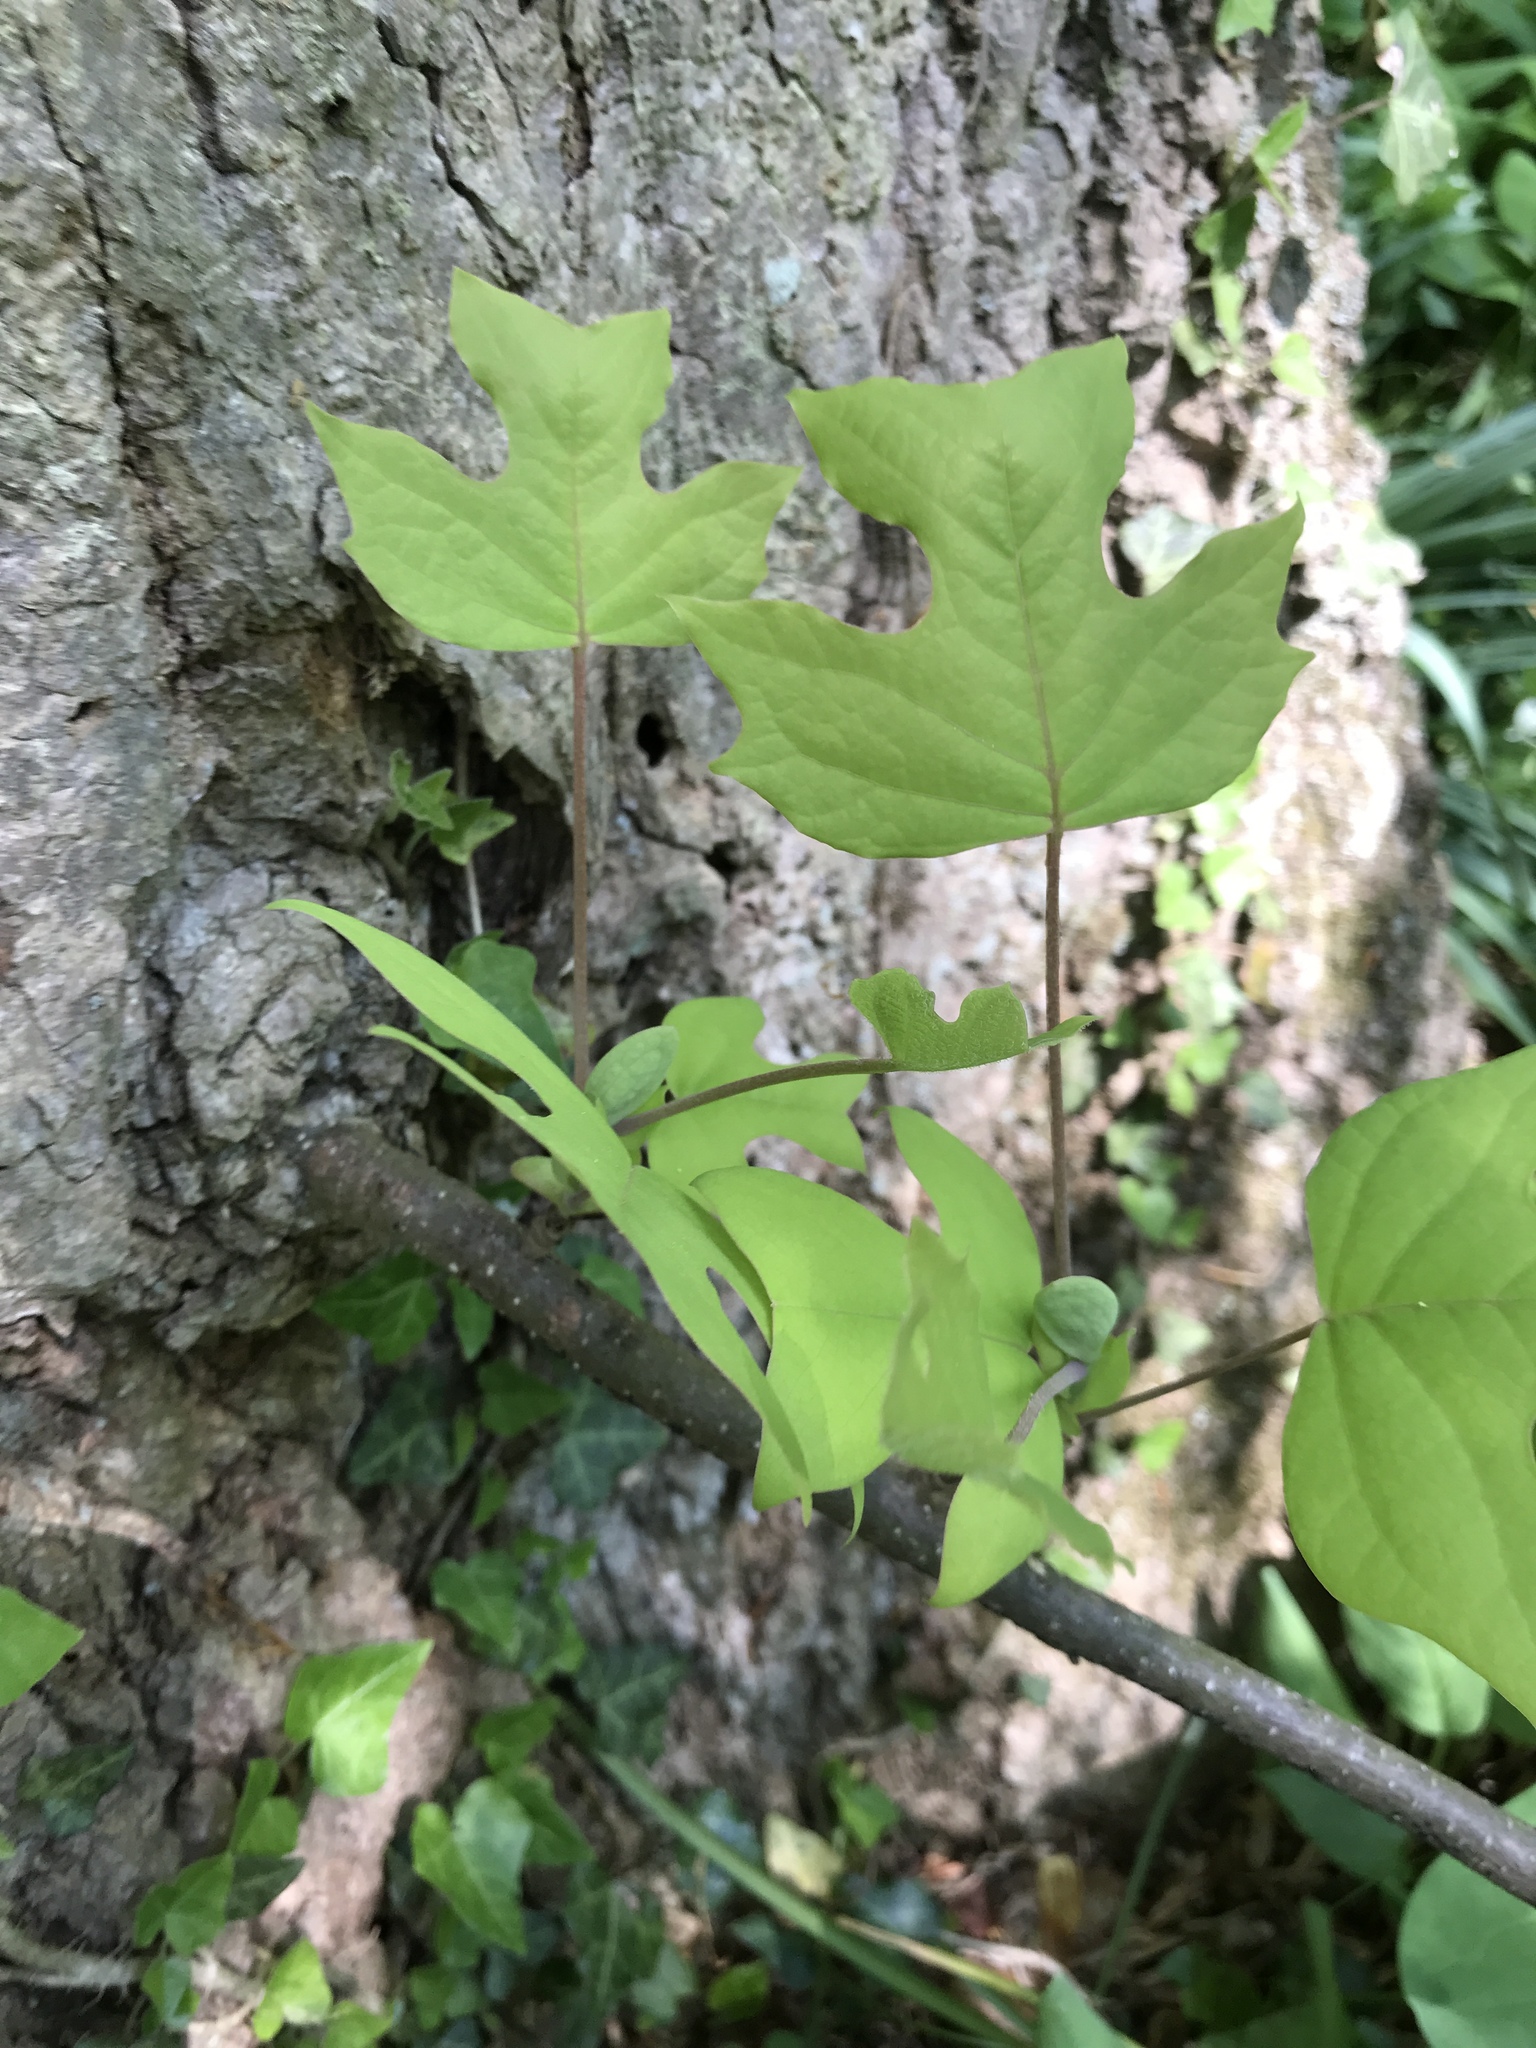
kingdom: Plantae
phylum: Tracheophyta
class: Magnoliopsida
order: Magnoliales
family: Magnoliaceae
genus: Liriodendron
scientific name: Liriodendron tulipifera
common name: Tulip tree
